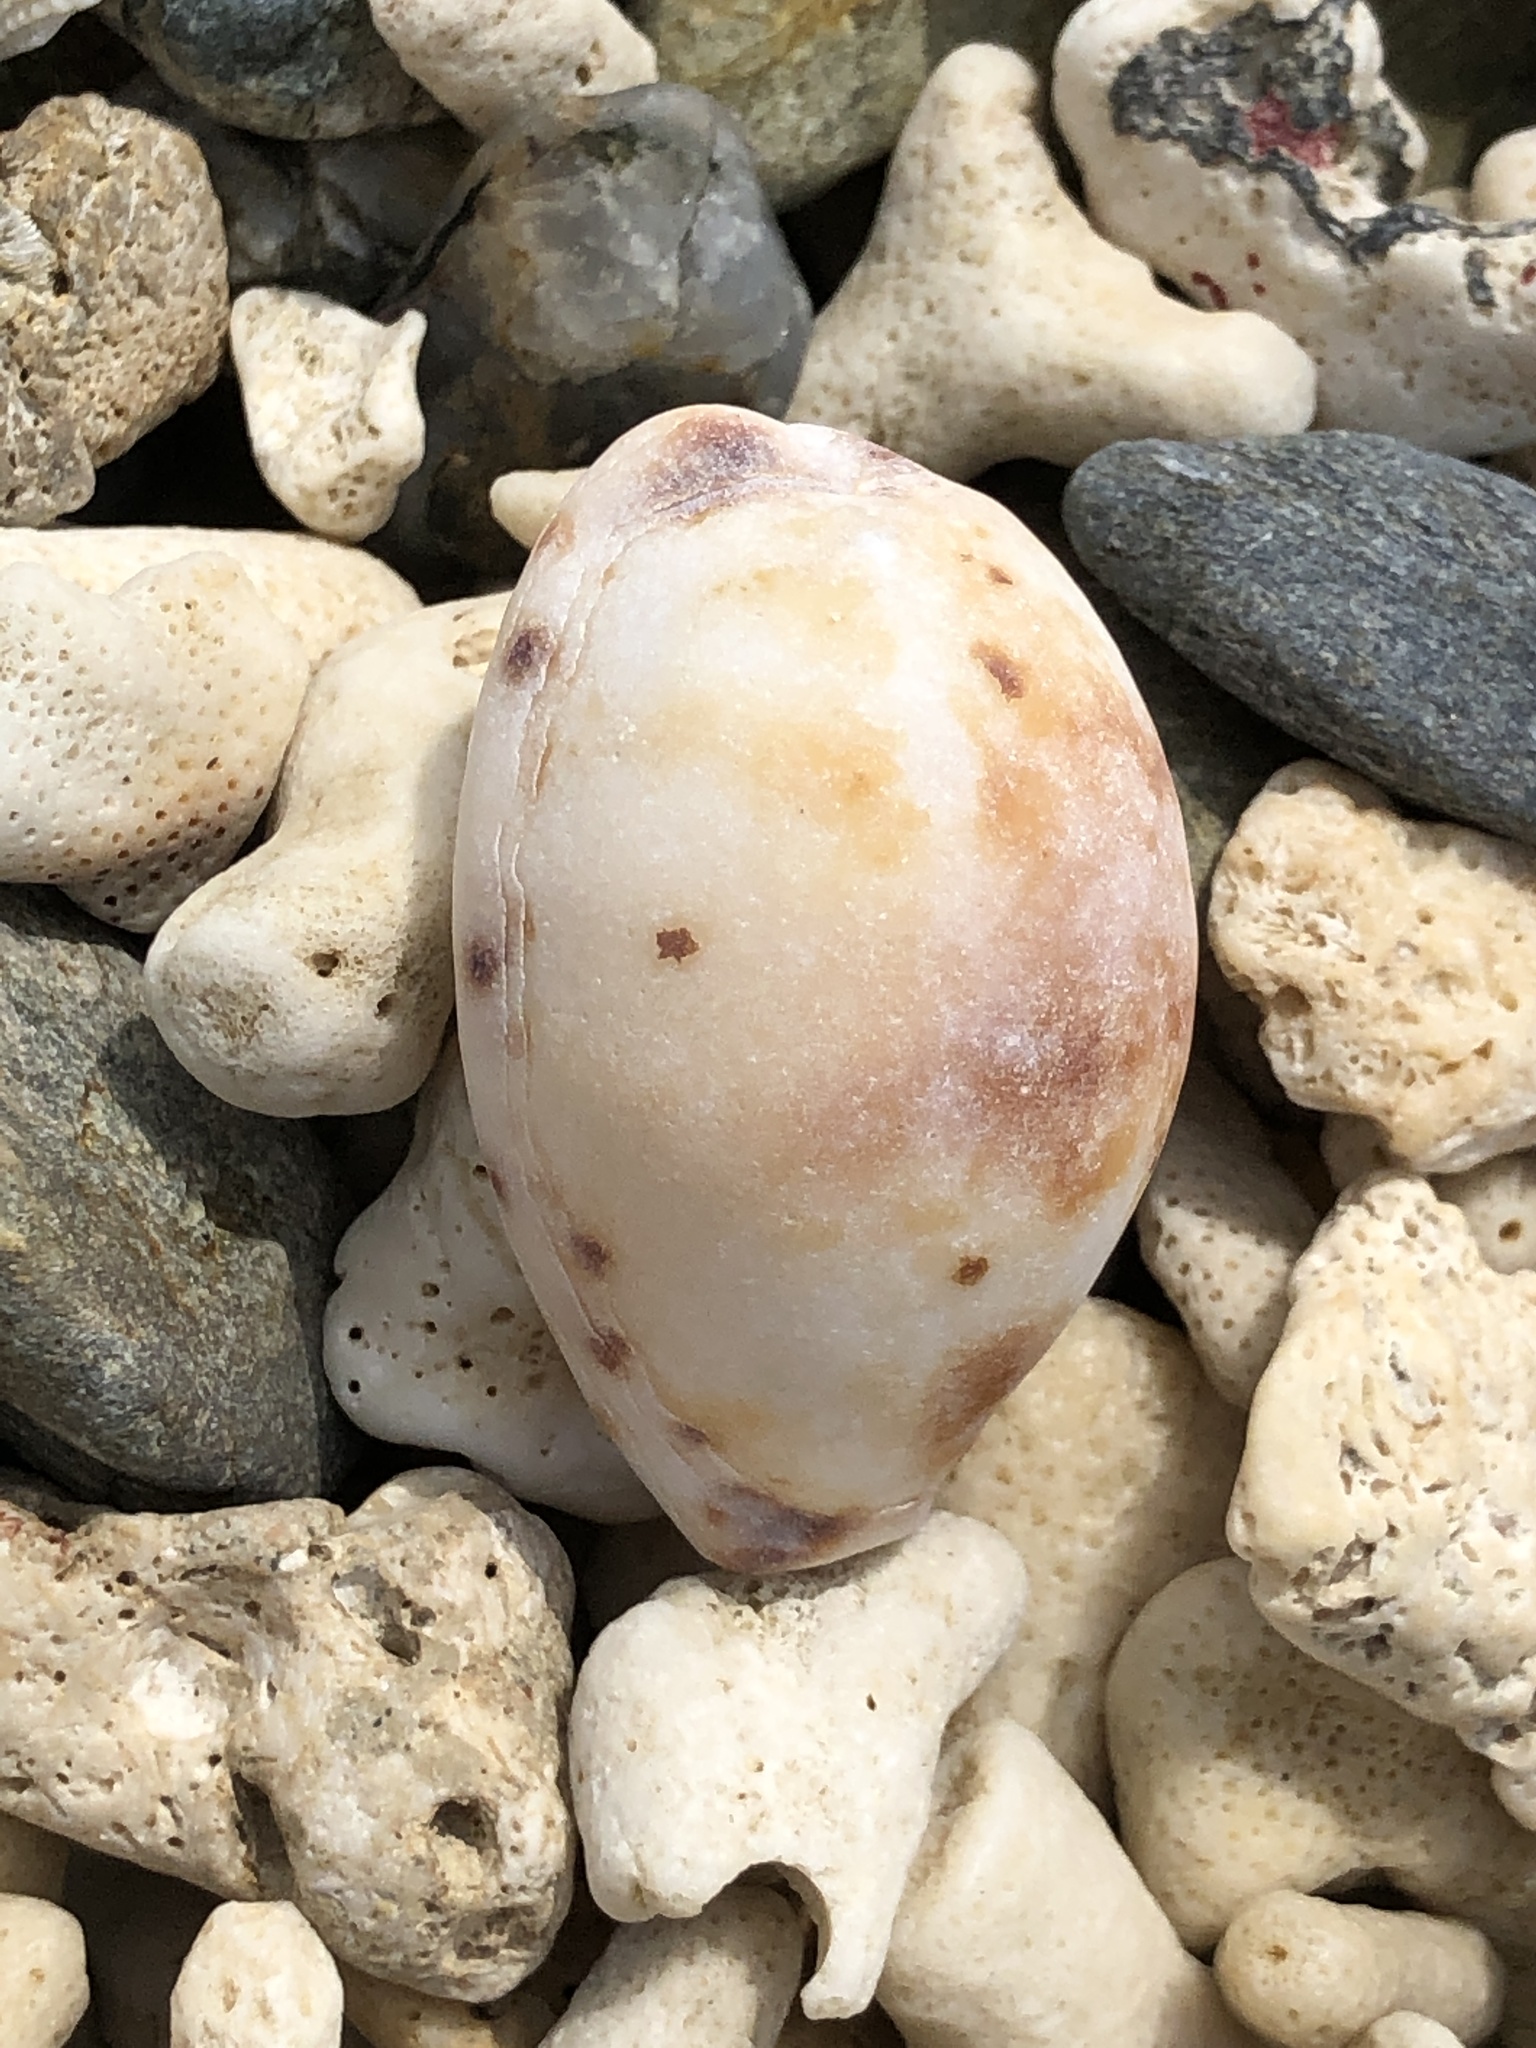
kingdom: Animalia
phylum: Mollusca
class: Gastropoda
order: Littorinimorpha
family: Cypraeidae
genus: Lyncina
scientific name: Lyncina lynx
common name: Bobcat cowrie
